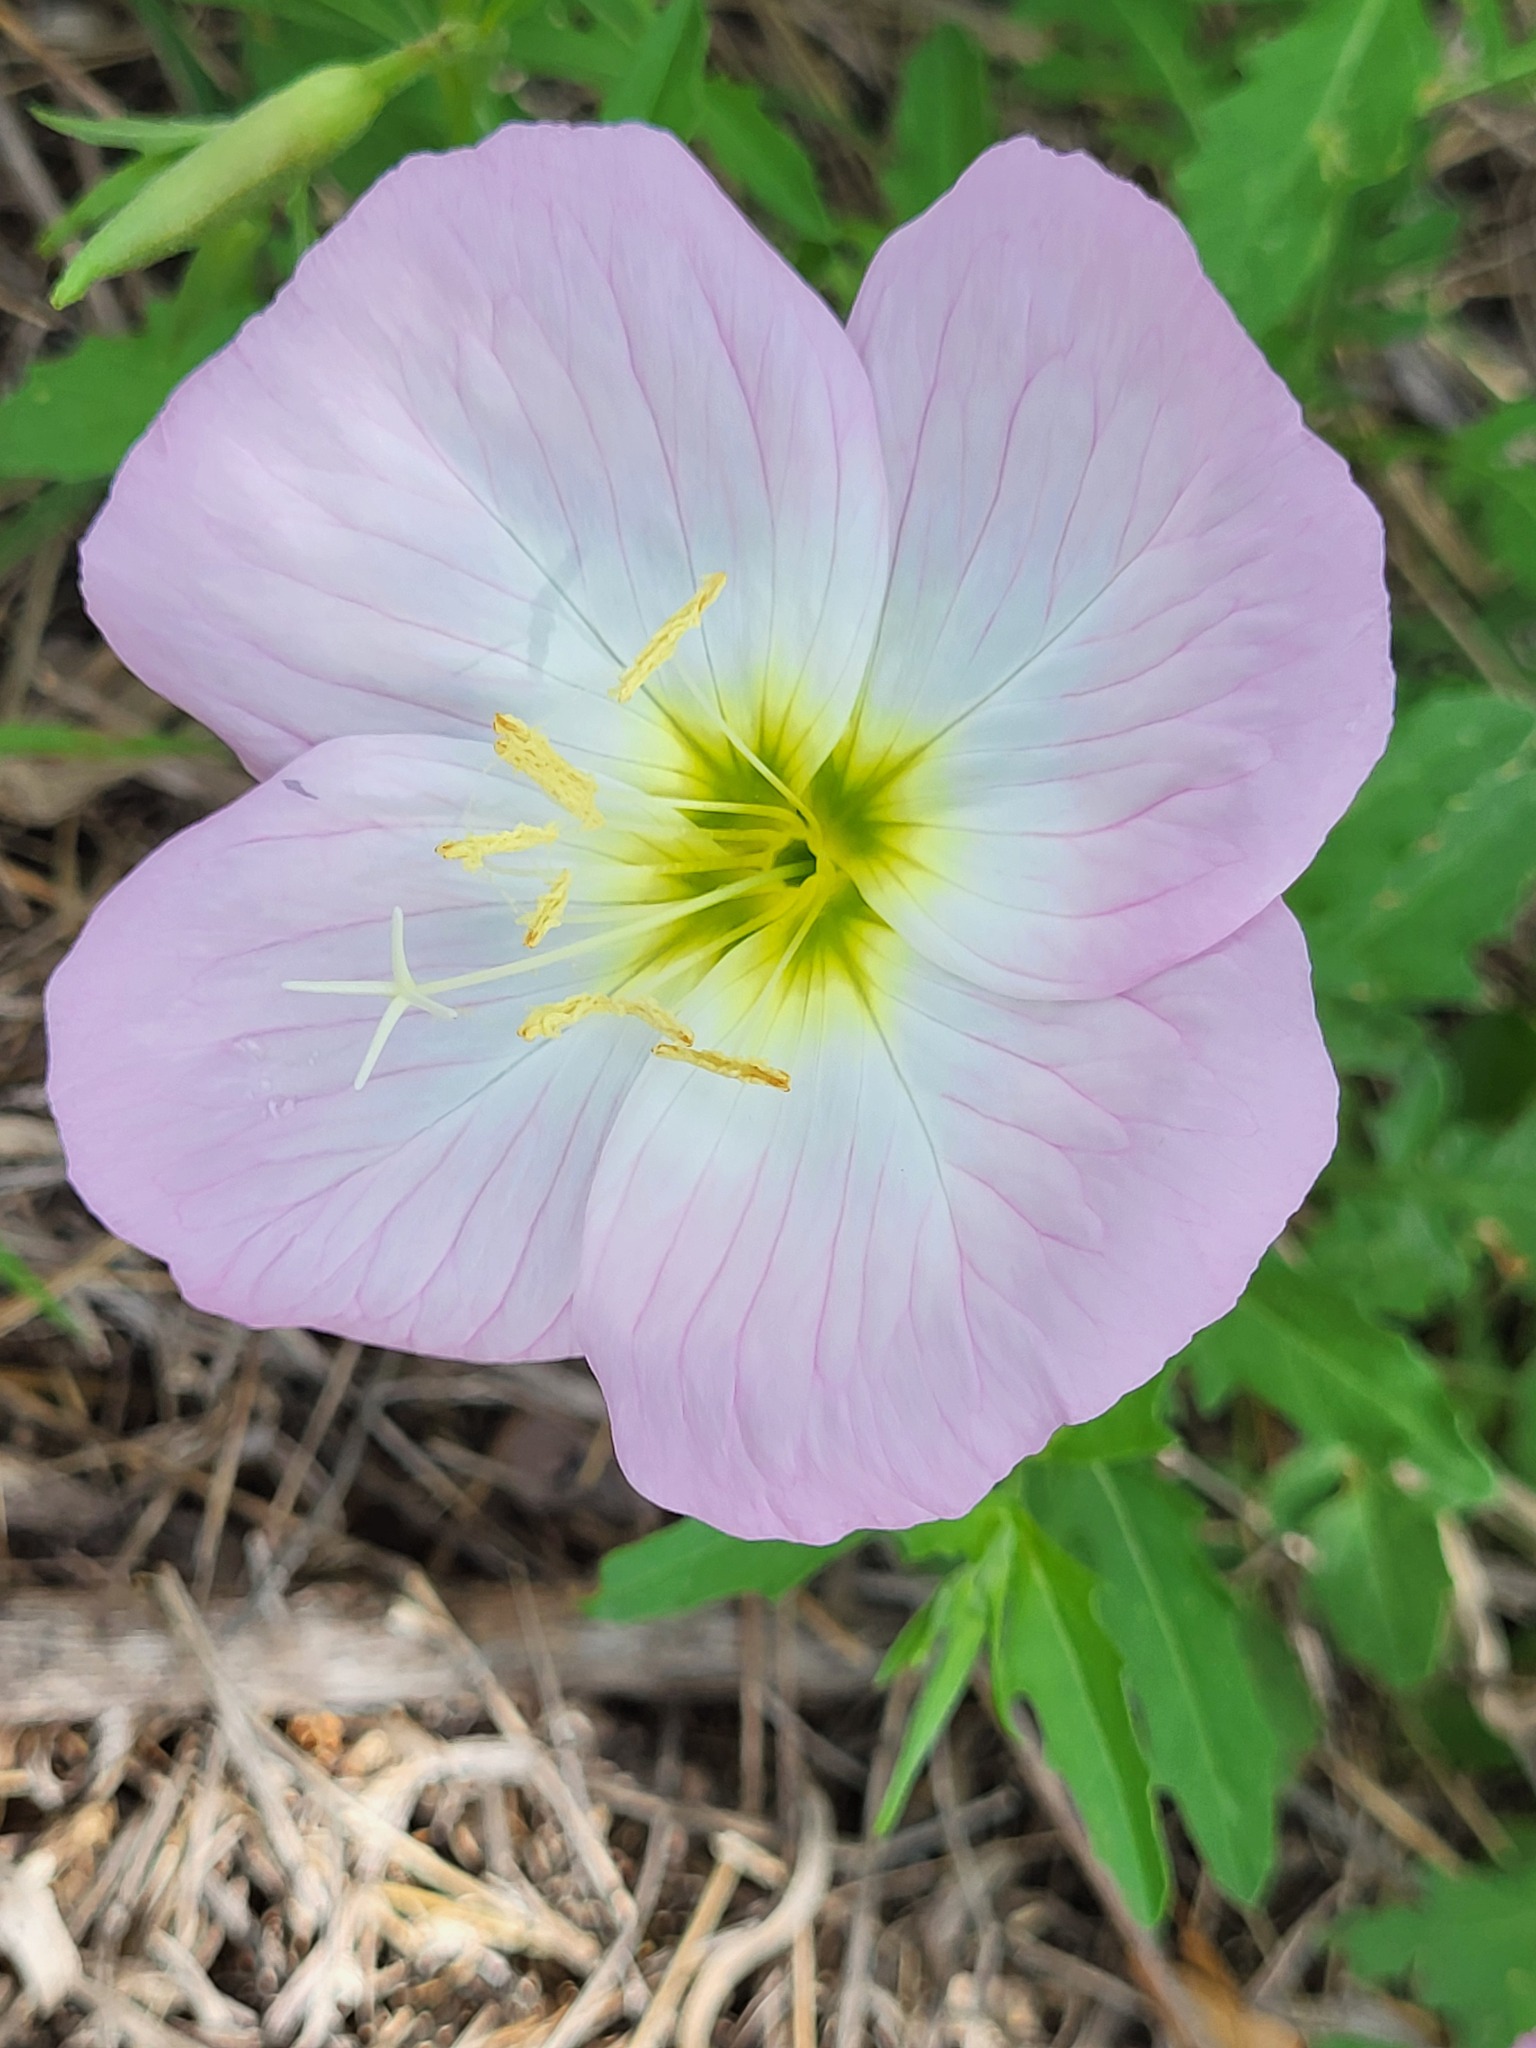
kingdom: Plantae
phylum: Tracheophyta
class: Magnoliopsida
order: Myrtales
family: Onagraceae
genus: Oenothera
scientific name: Oenothera speciosa
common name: White evening-primrose
